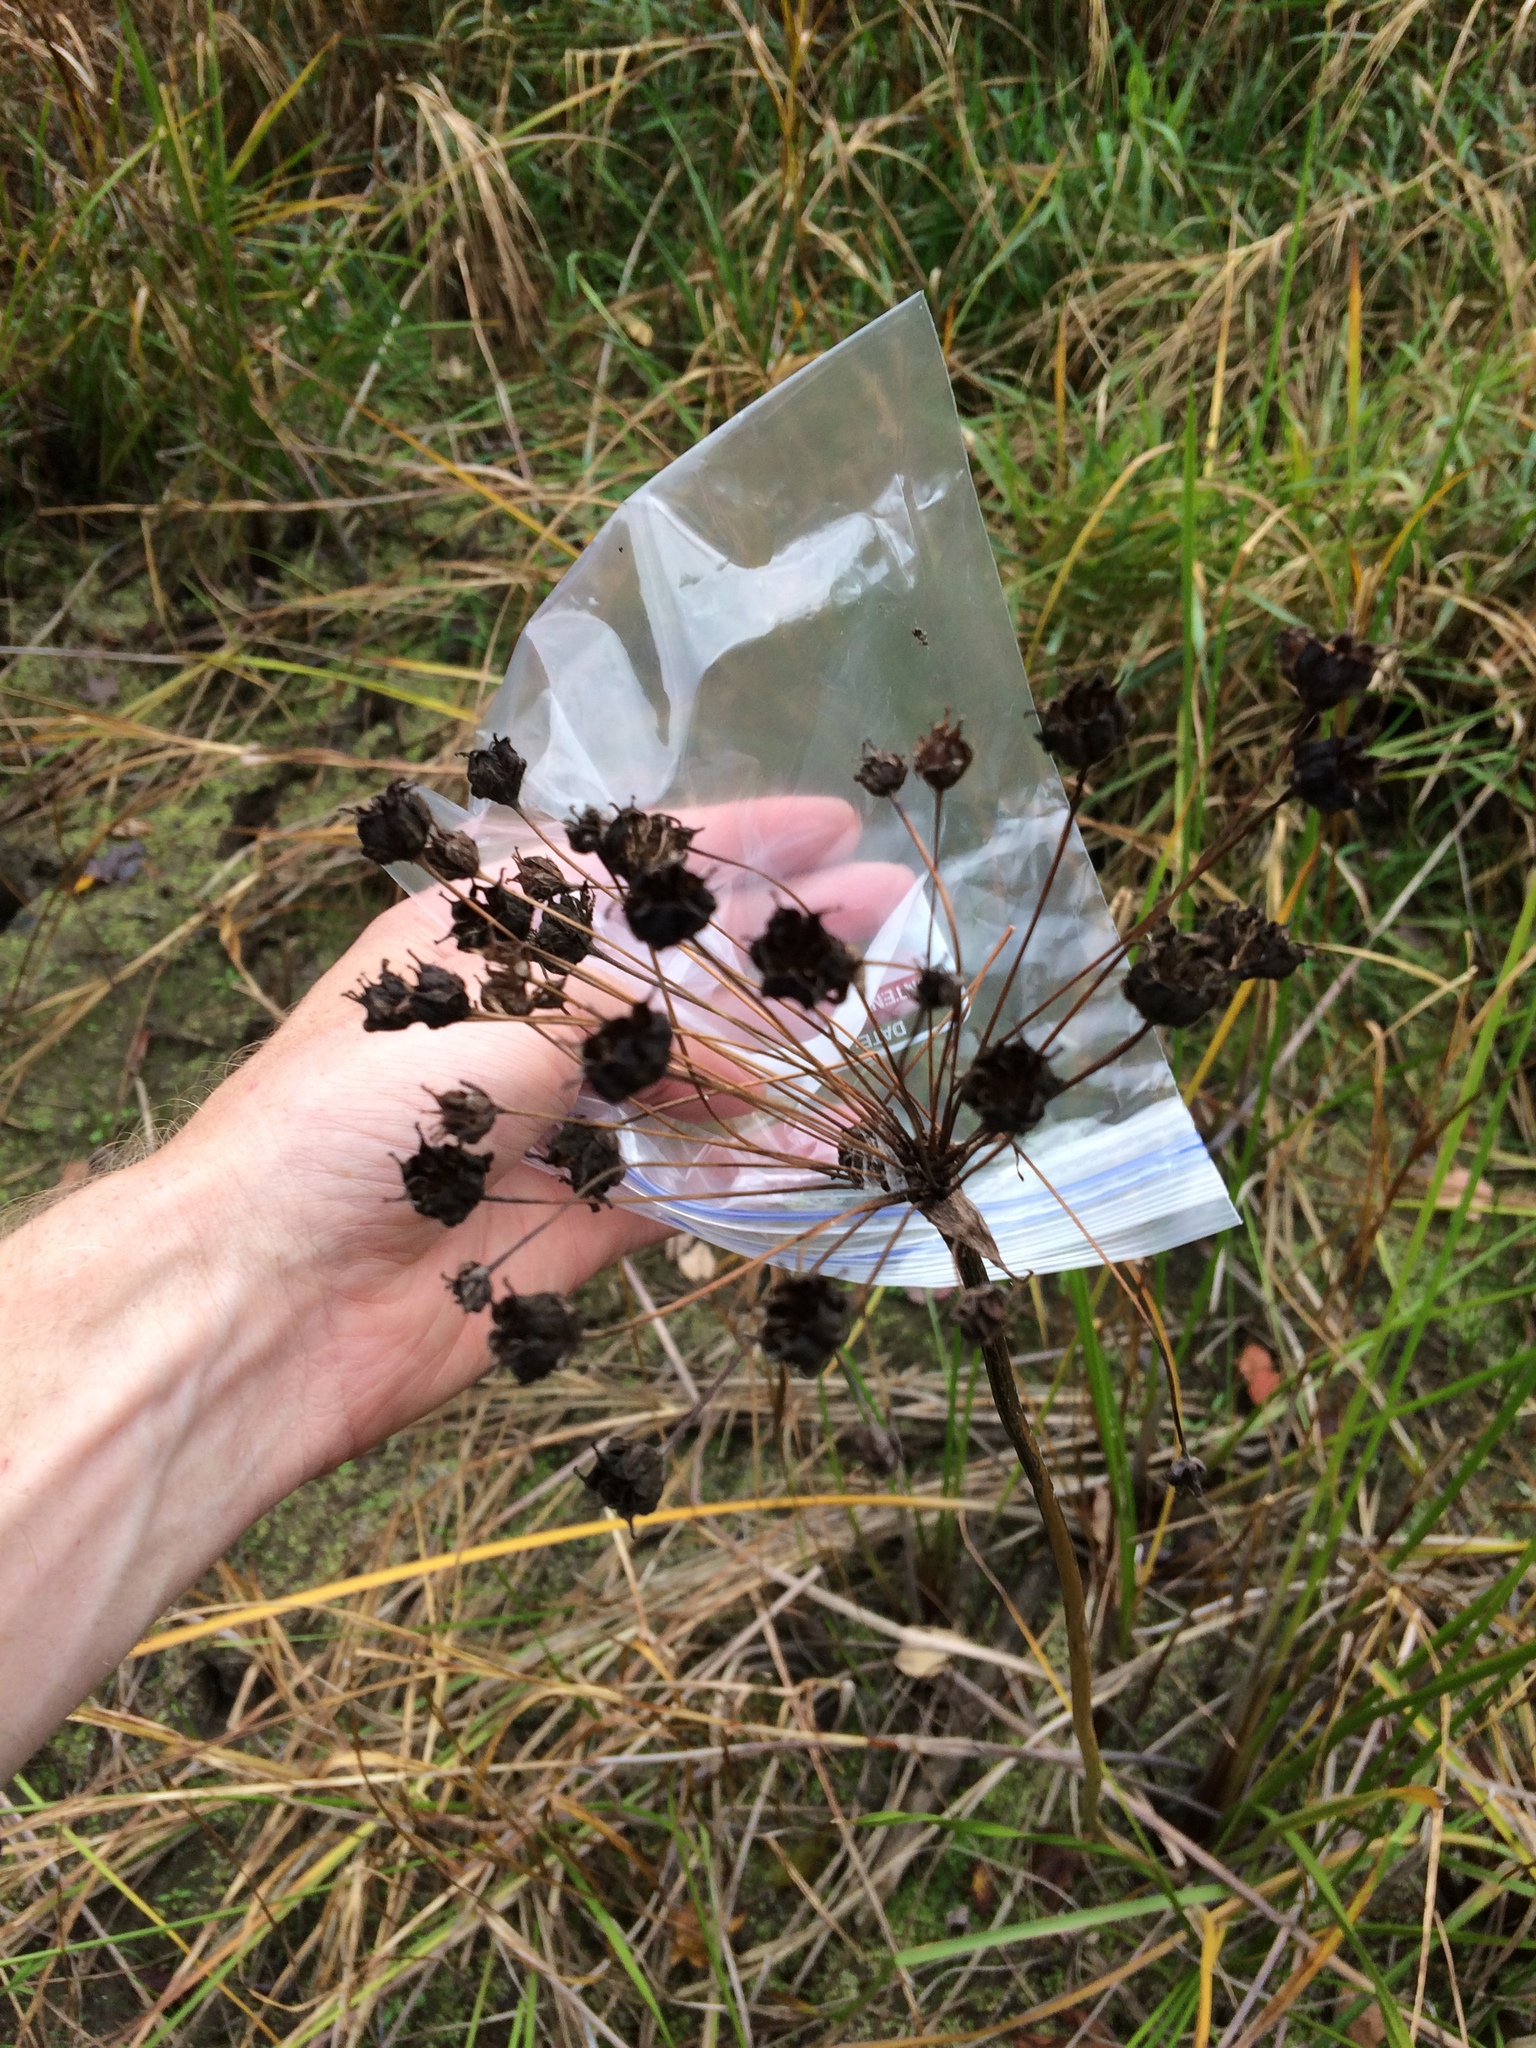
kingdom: Plantae
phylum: Tracheophyta
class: Liliopsida
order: Alismatales
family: Butomaceae
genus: Butomus
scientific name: Butomus umbellatus
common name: Flowering-rush
